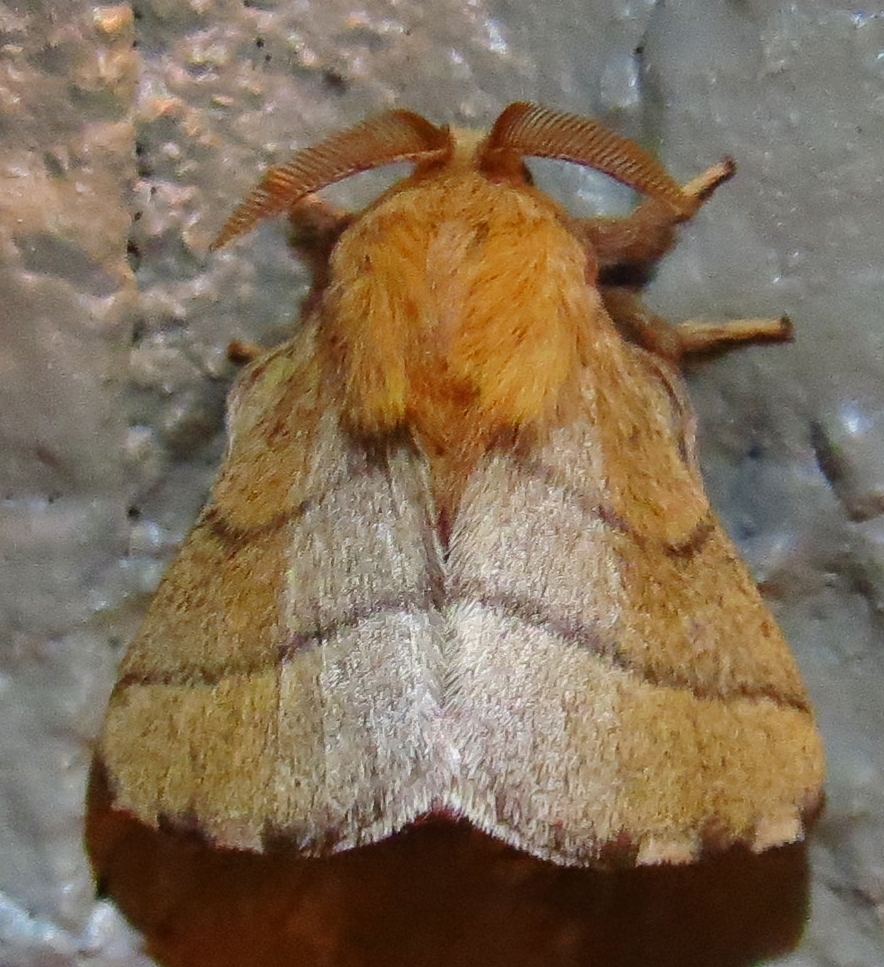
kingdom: Animalia
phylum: Arthropoda
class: Insecta
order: Lepidoptera
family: Lasiocampidae
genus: Malacosoma
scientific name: Malacosoma disstria
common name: Forest tent caterpillar
